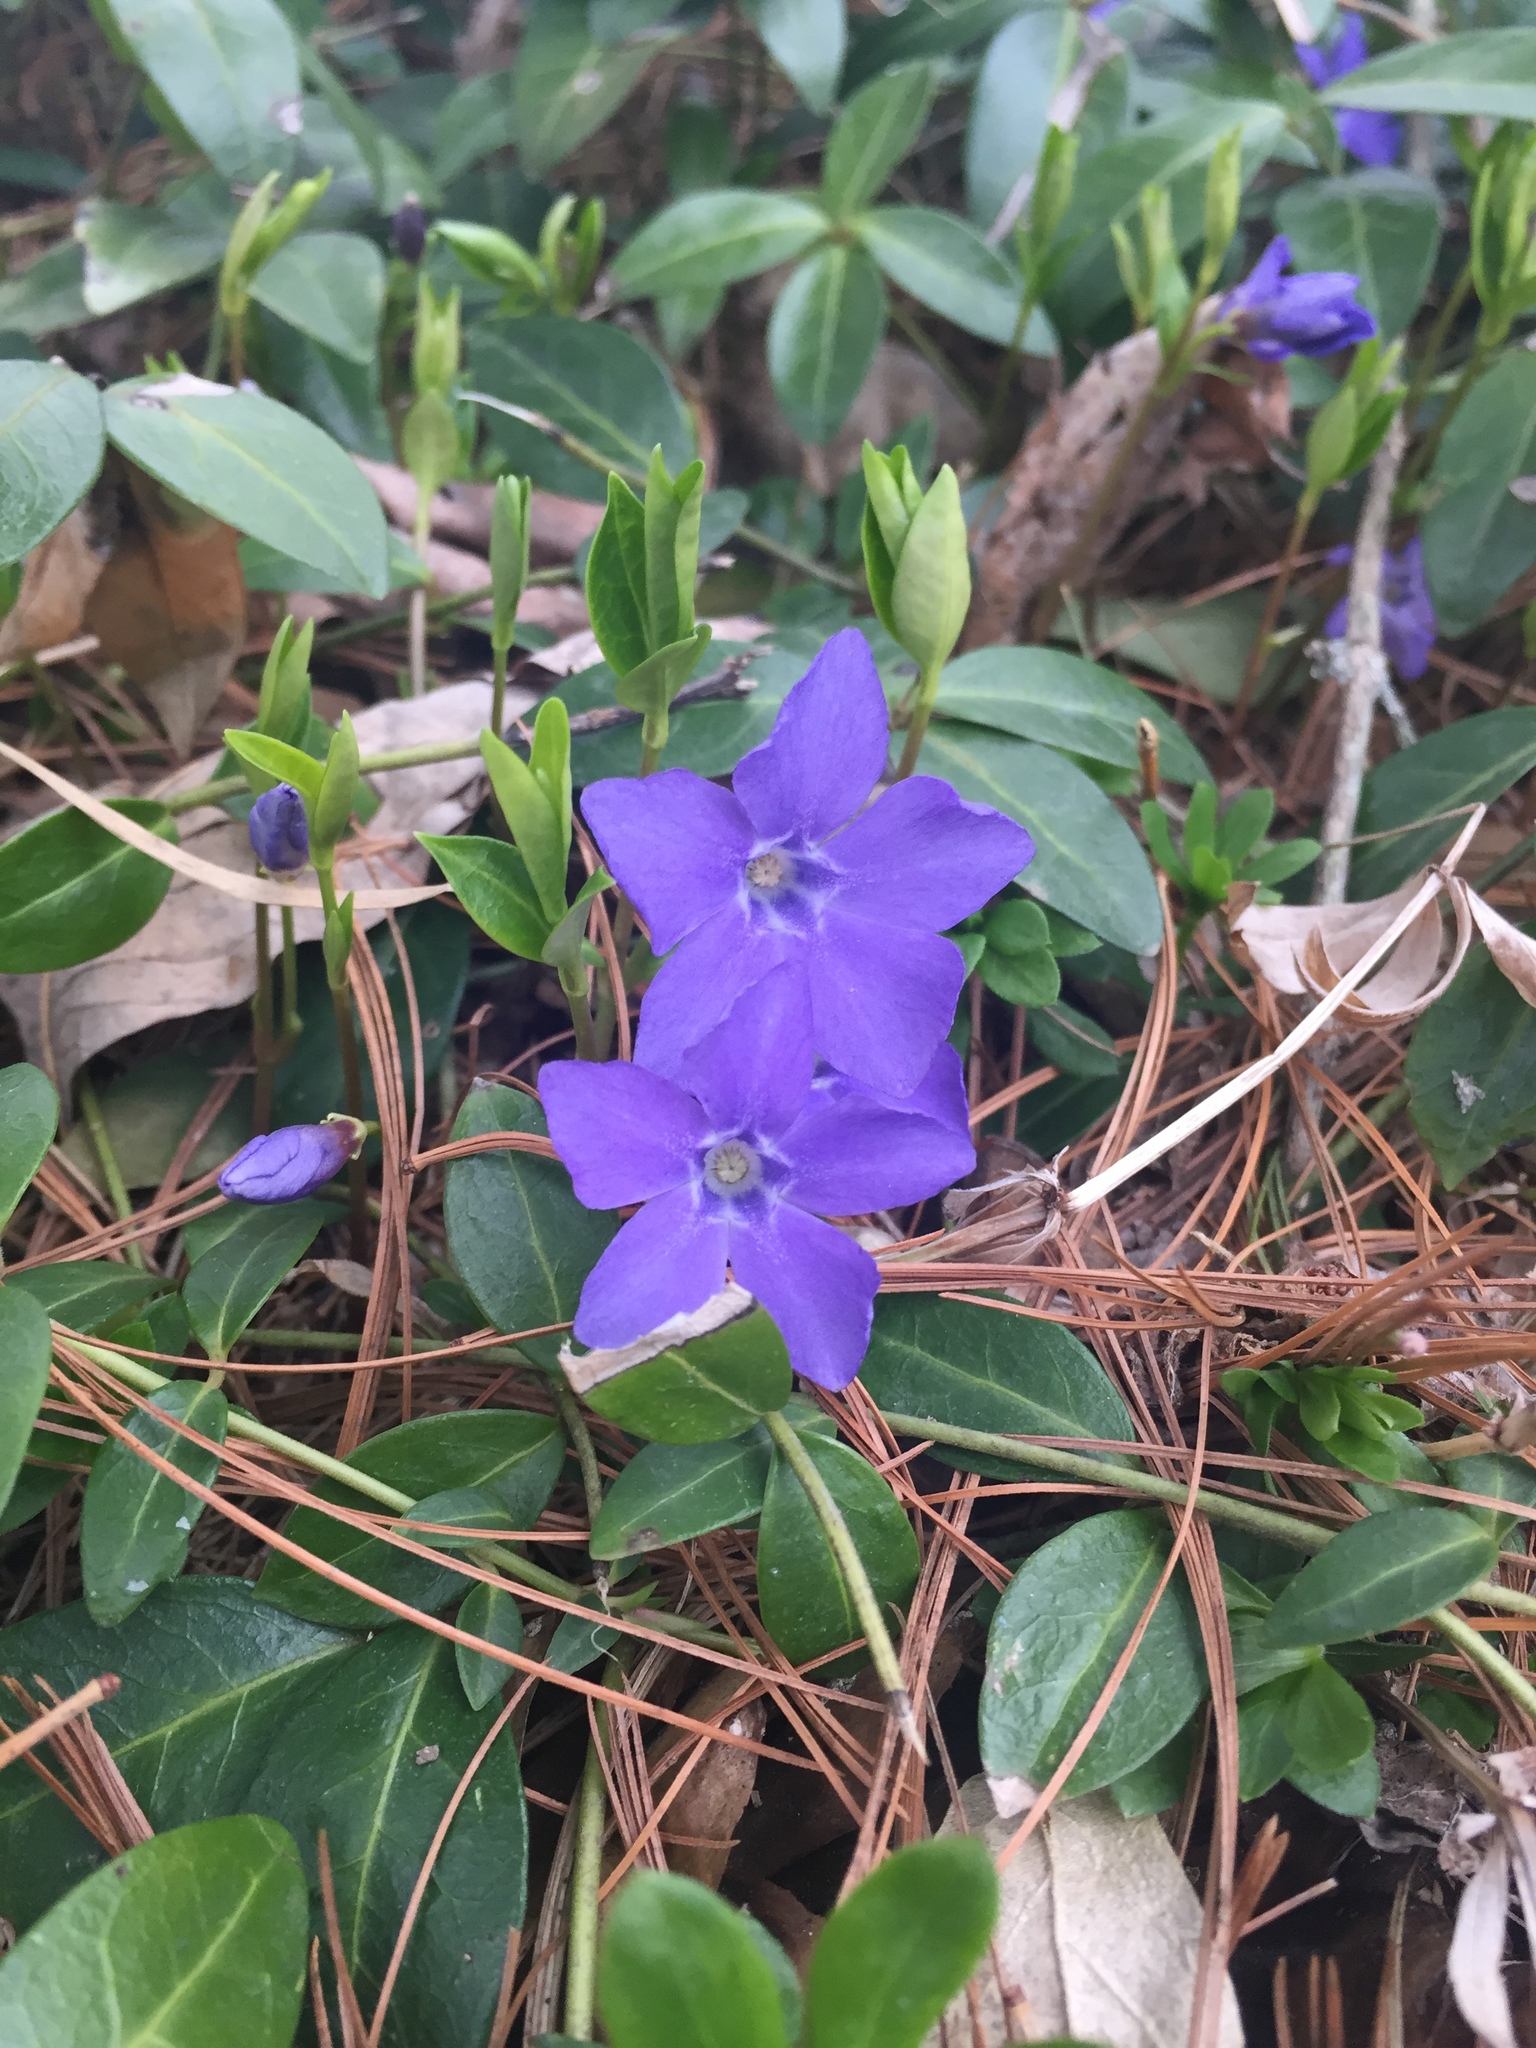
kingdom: Plantae
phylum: Tracheophyta
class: Magnoliopsida
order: Gentianales
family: Apocynaceae
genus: Vinca
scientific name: Vinca minor
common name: Lesser periwinkle
